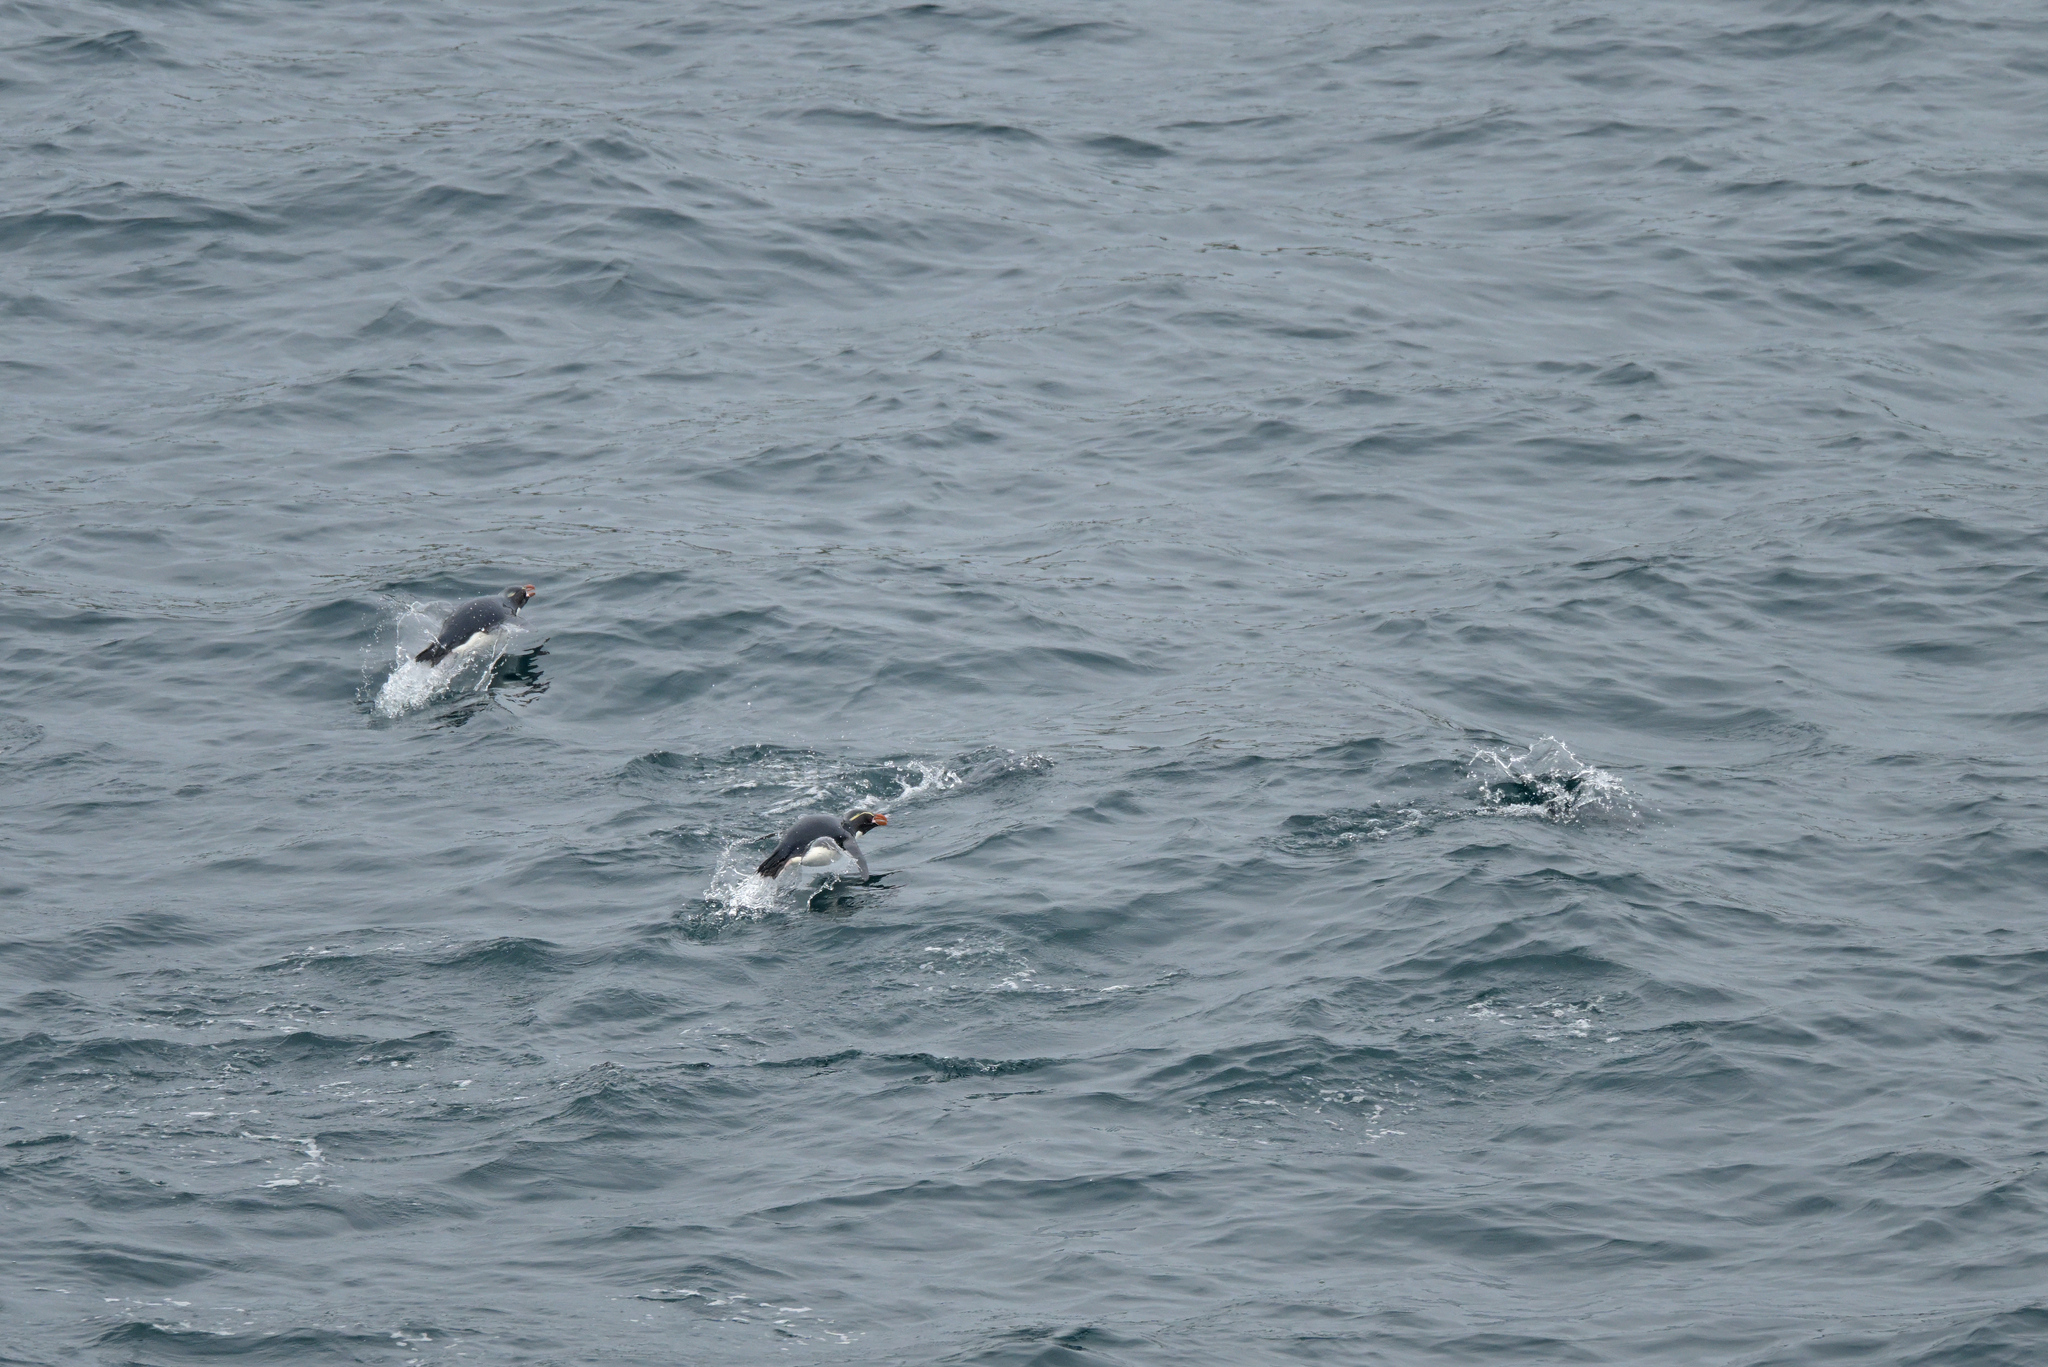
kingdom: Animalia
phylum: Chordata
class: Aves
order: Sphenisciformes
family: Spheniscidae
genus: Eudyptes
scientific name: Eudyptes robustus
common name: Snares penguin
